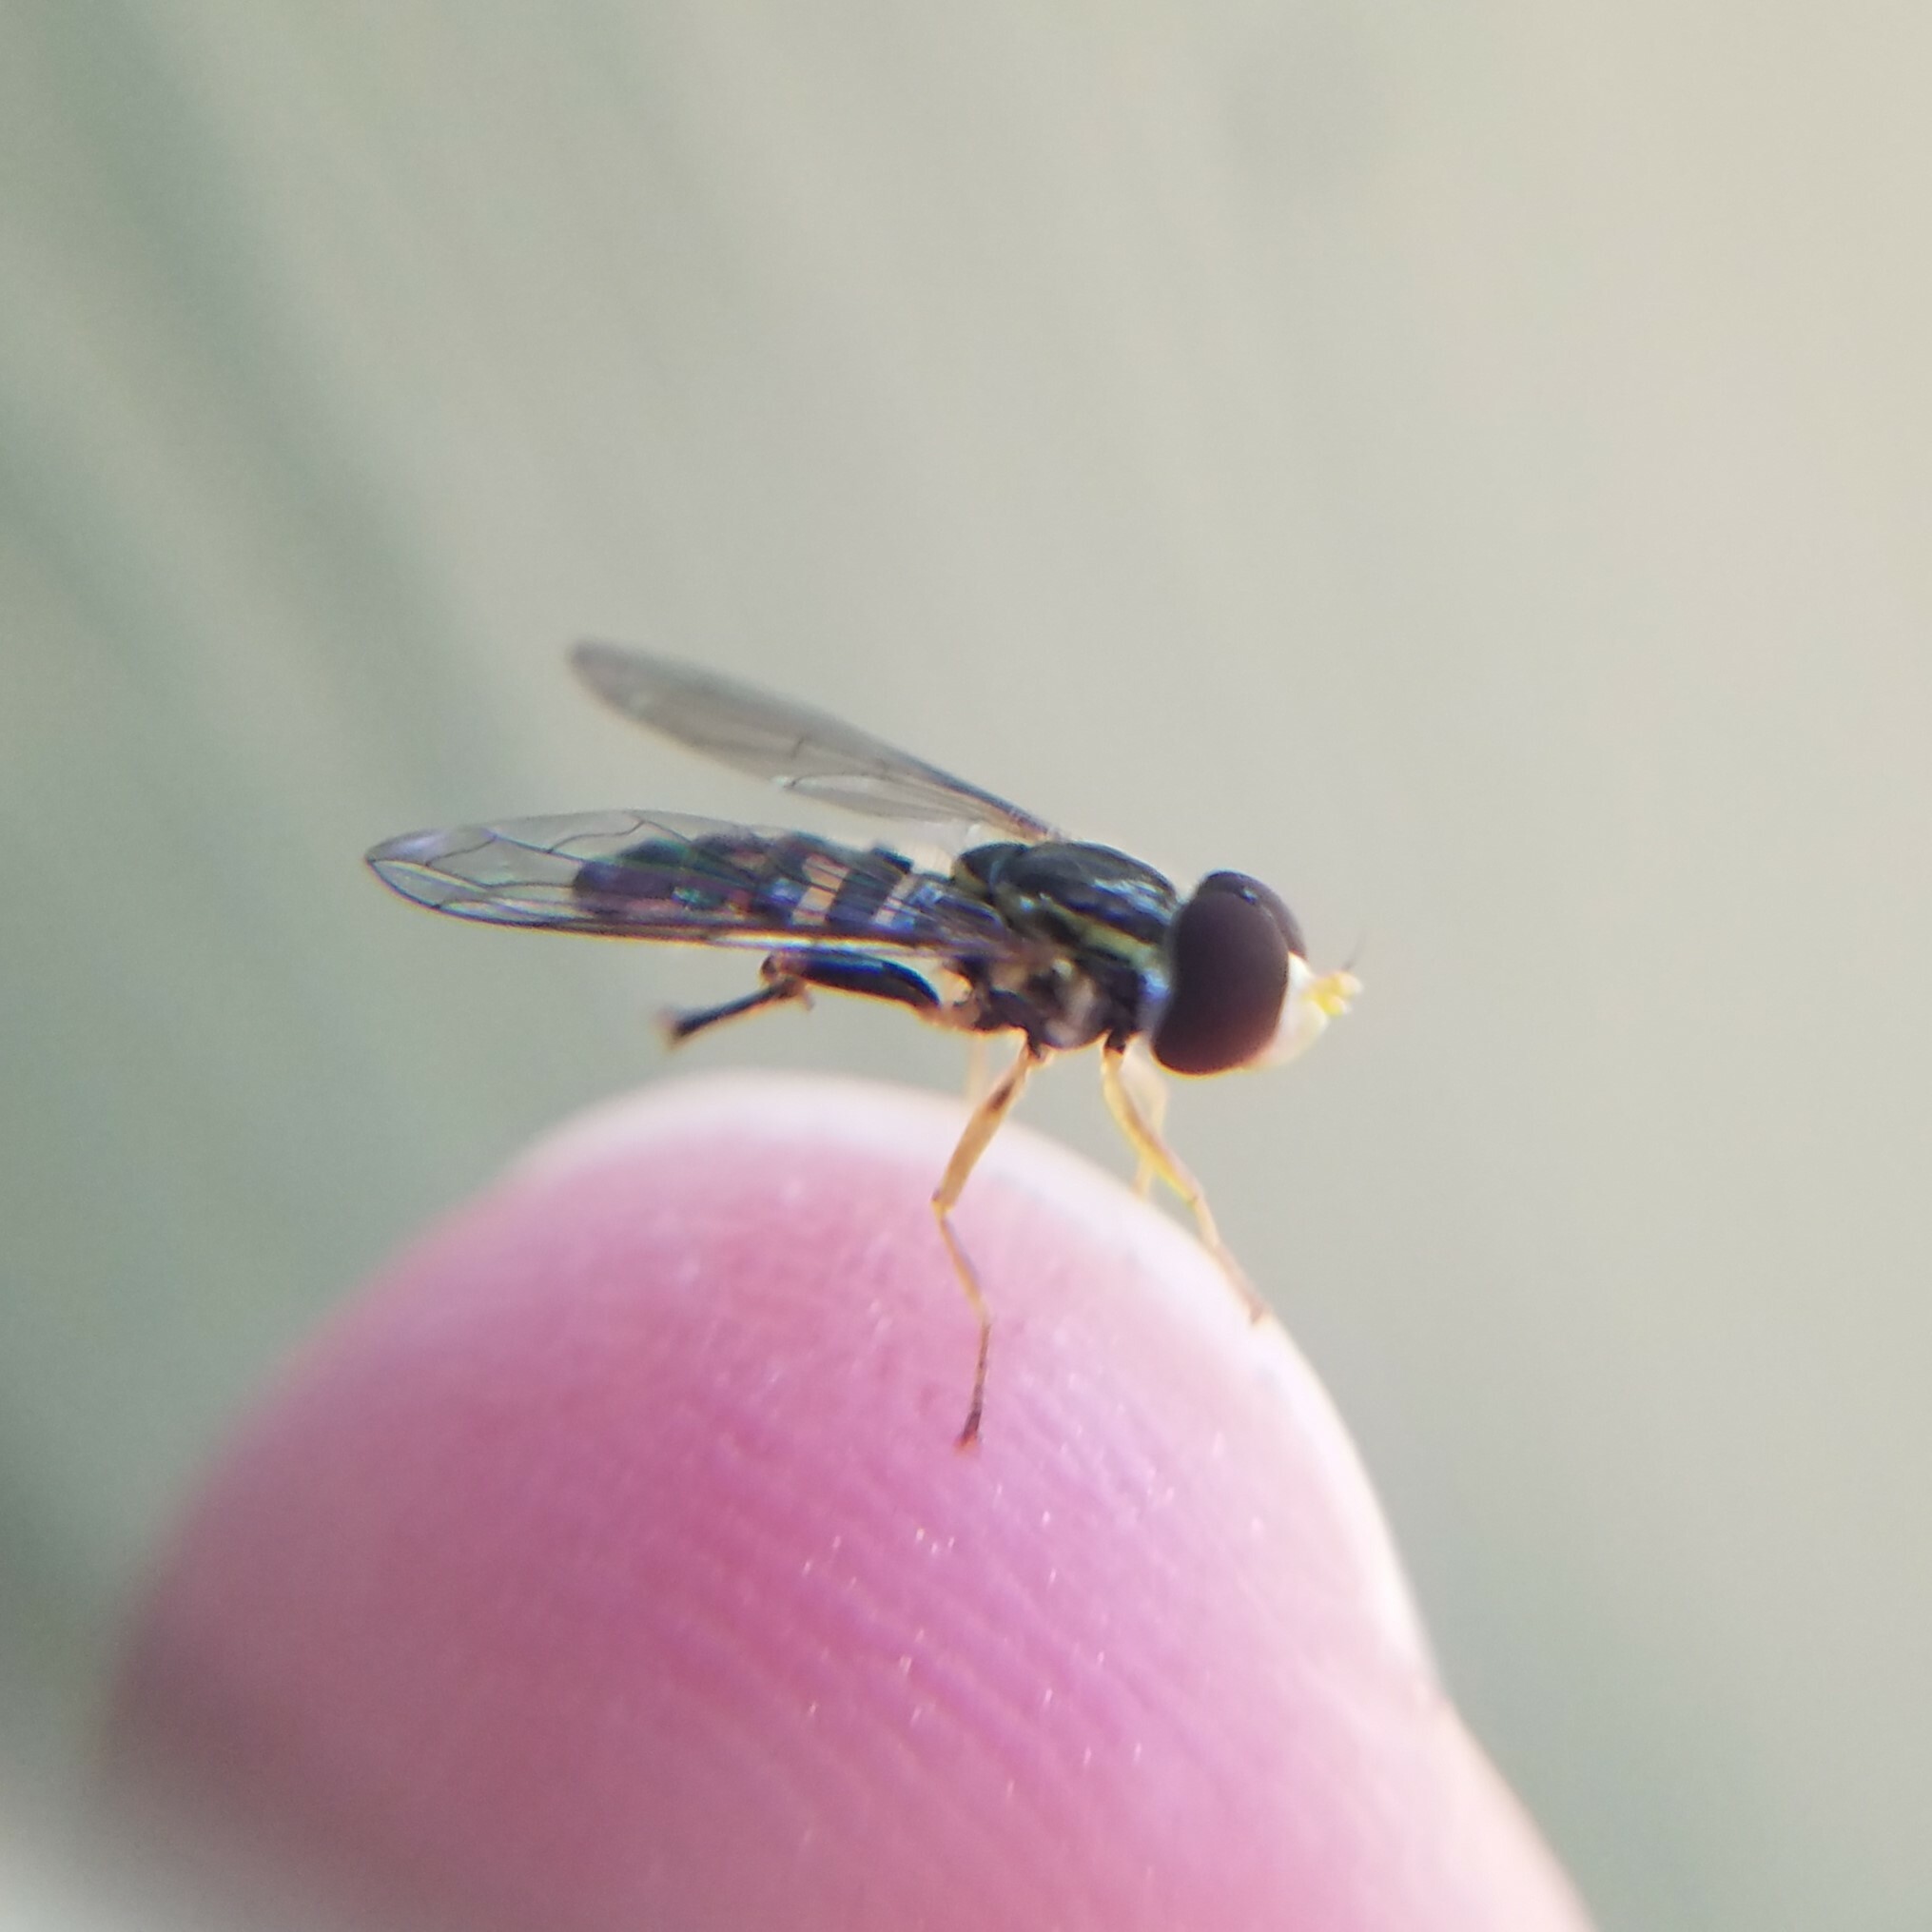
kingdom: Animalia
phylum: Arthropoda
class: Insecta
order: Diptera
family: Syrphidae
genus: Toxomerus
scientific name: Toxomerus geminatus
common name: Eastern calligrapher
